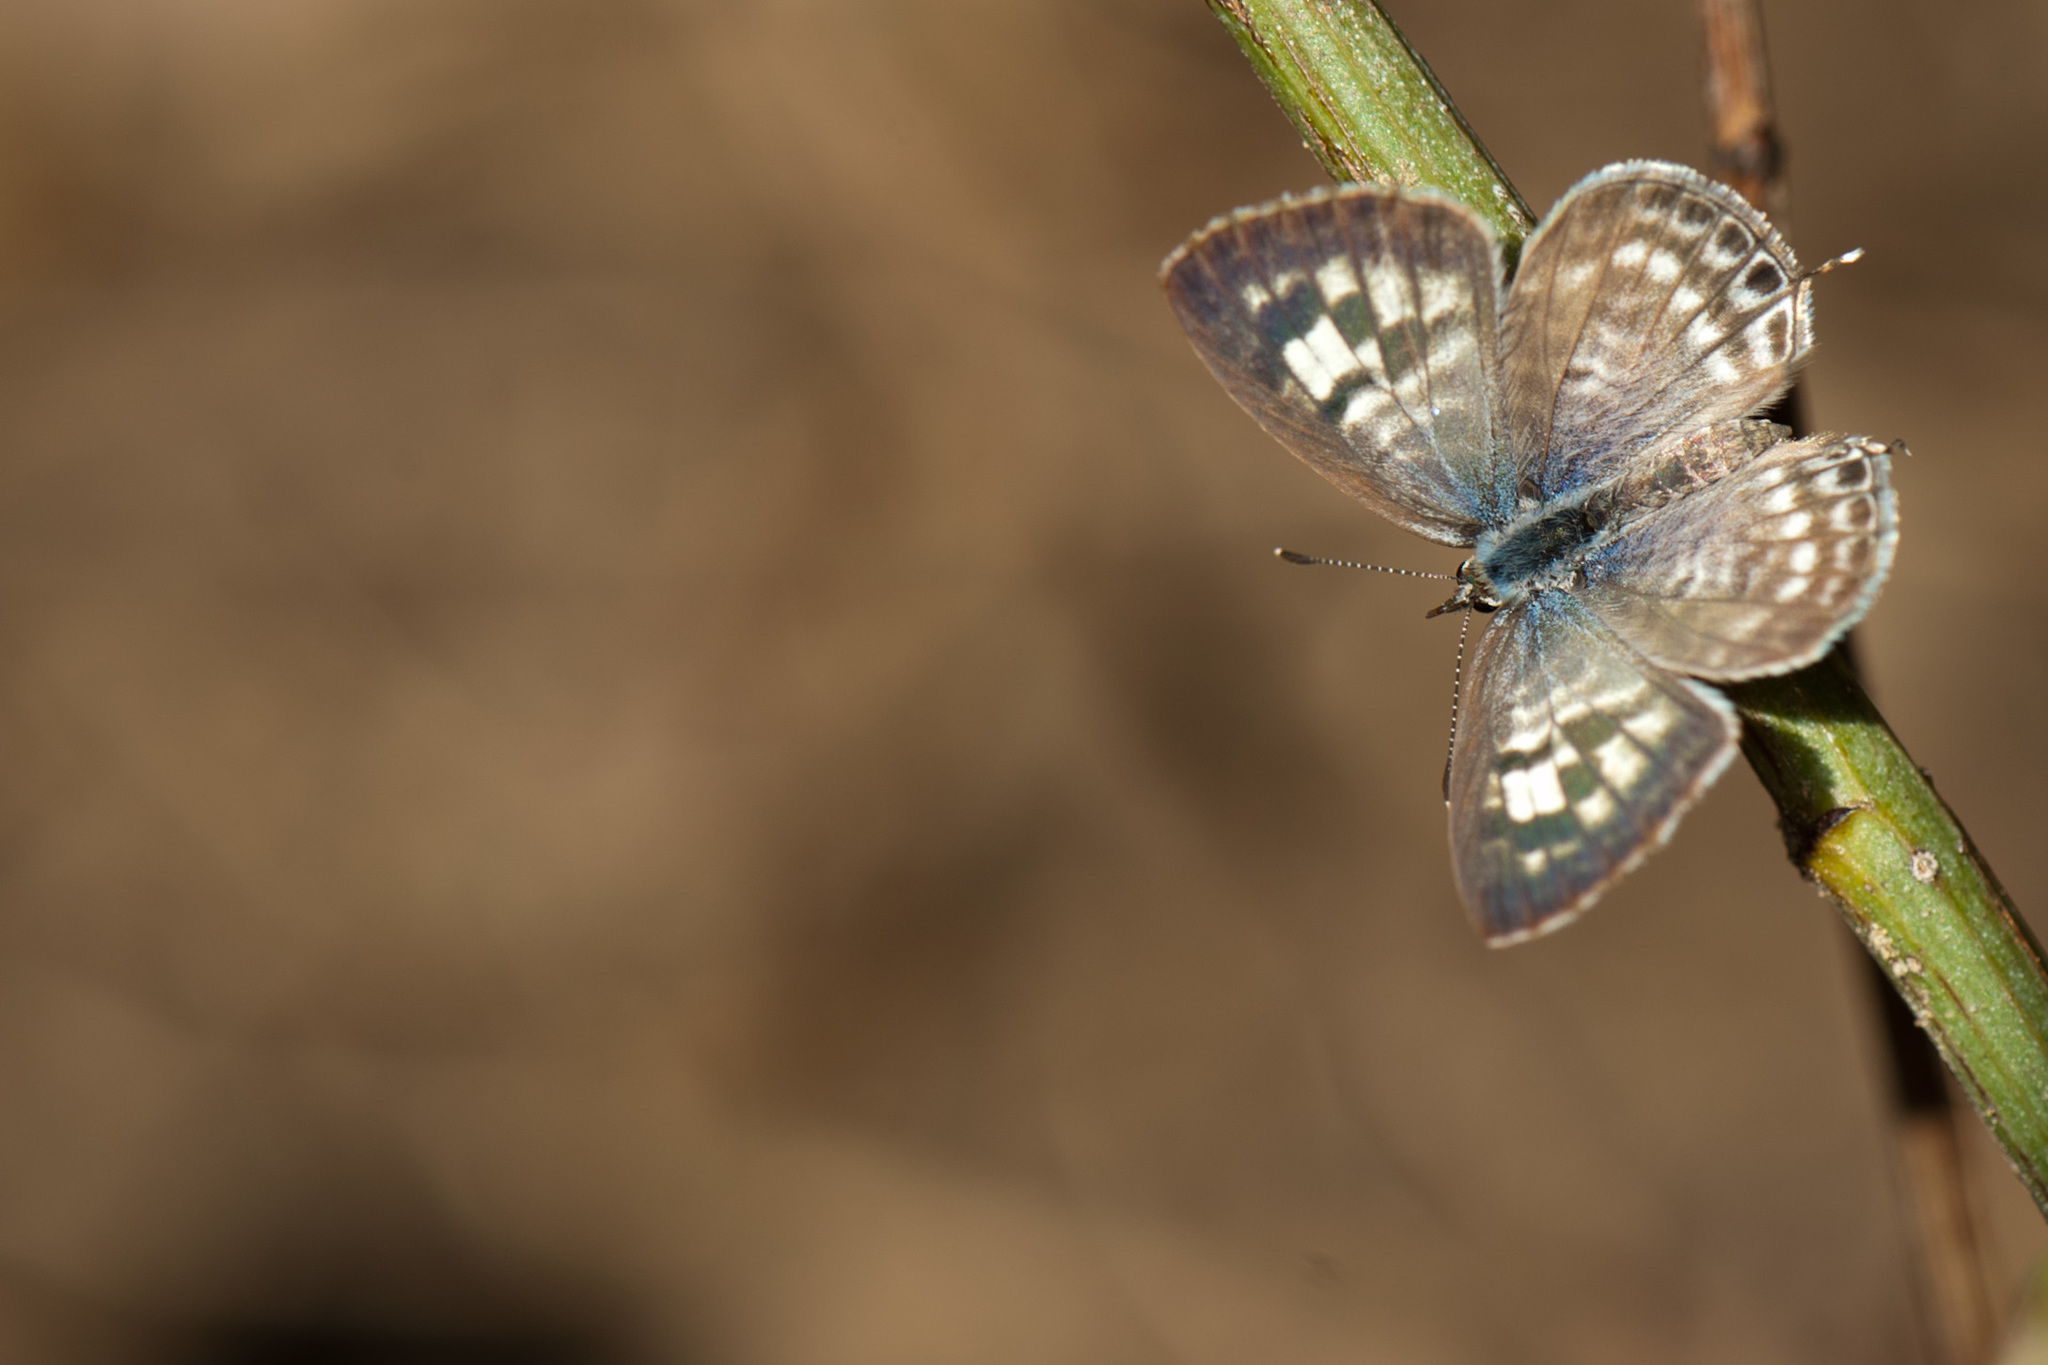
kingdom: Animalia
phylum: Arthropoda
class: Insecta
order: Lepidoptera
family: Lycaenidae
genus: Leptotes
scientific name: Leptotes plinius
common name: Zebra blue
